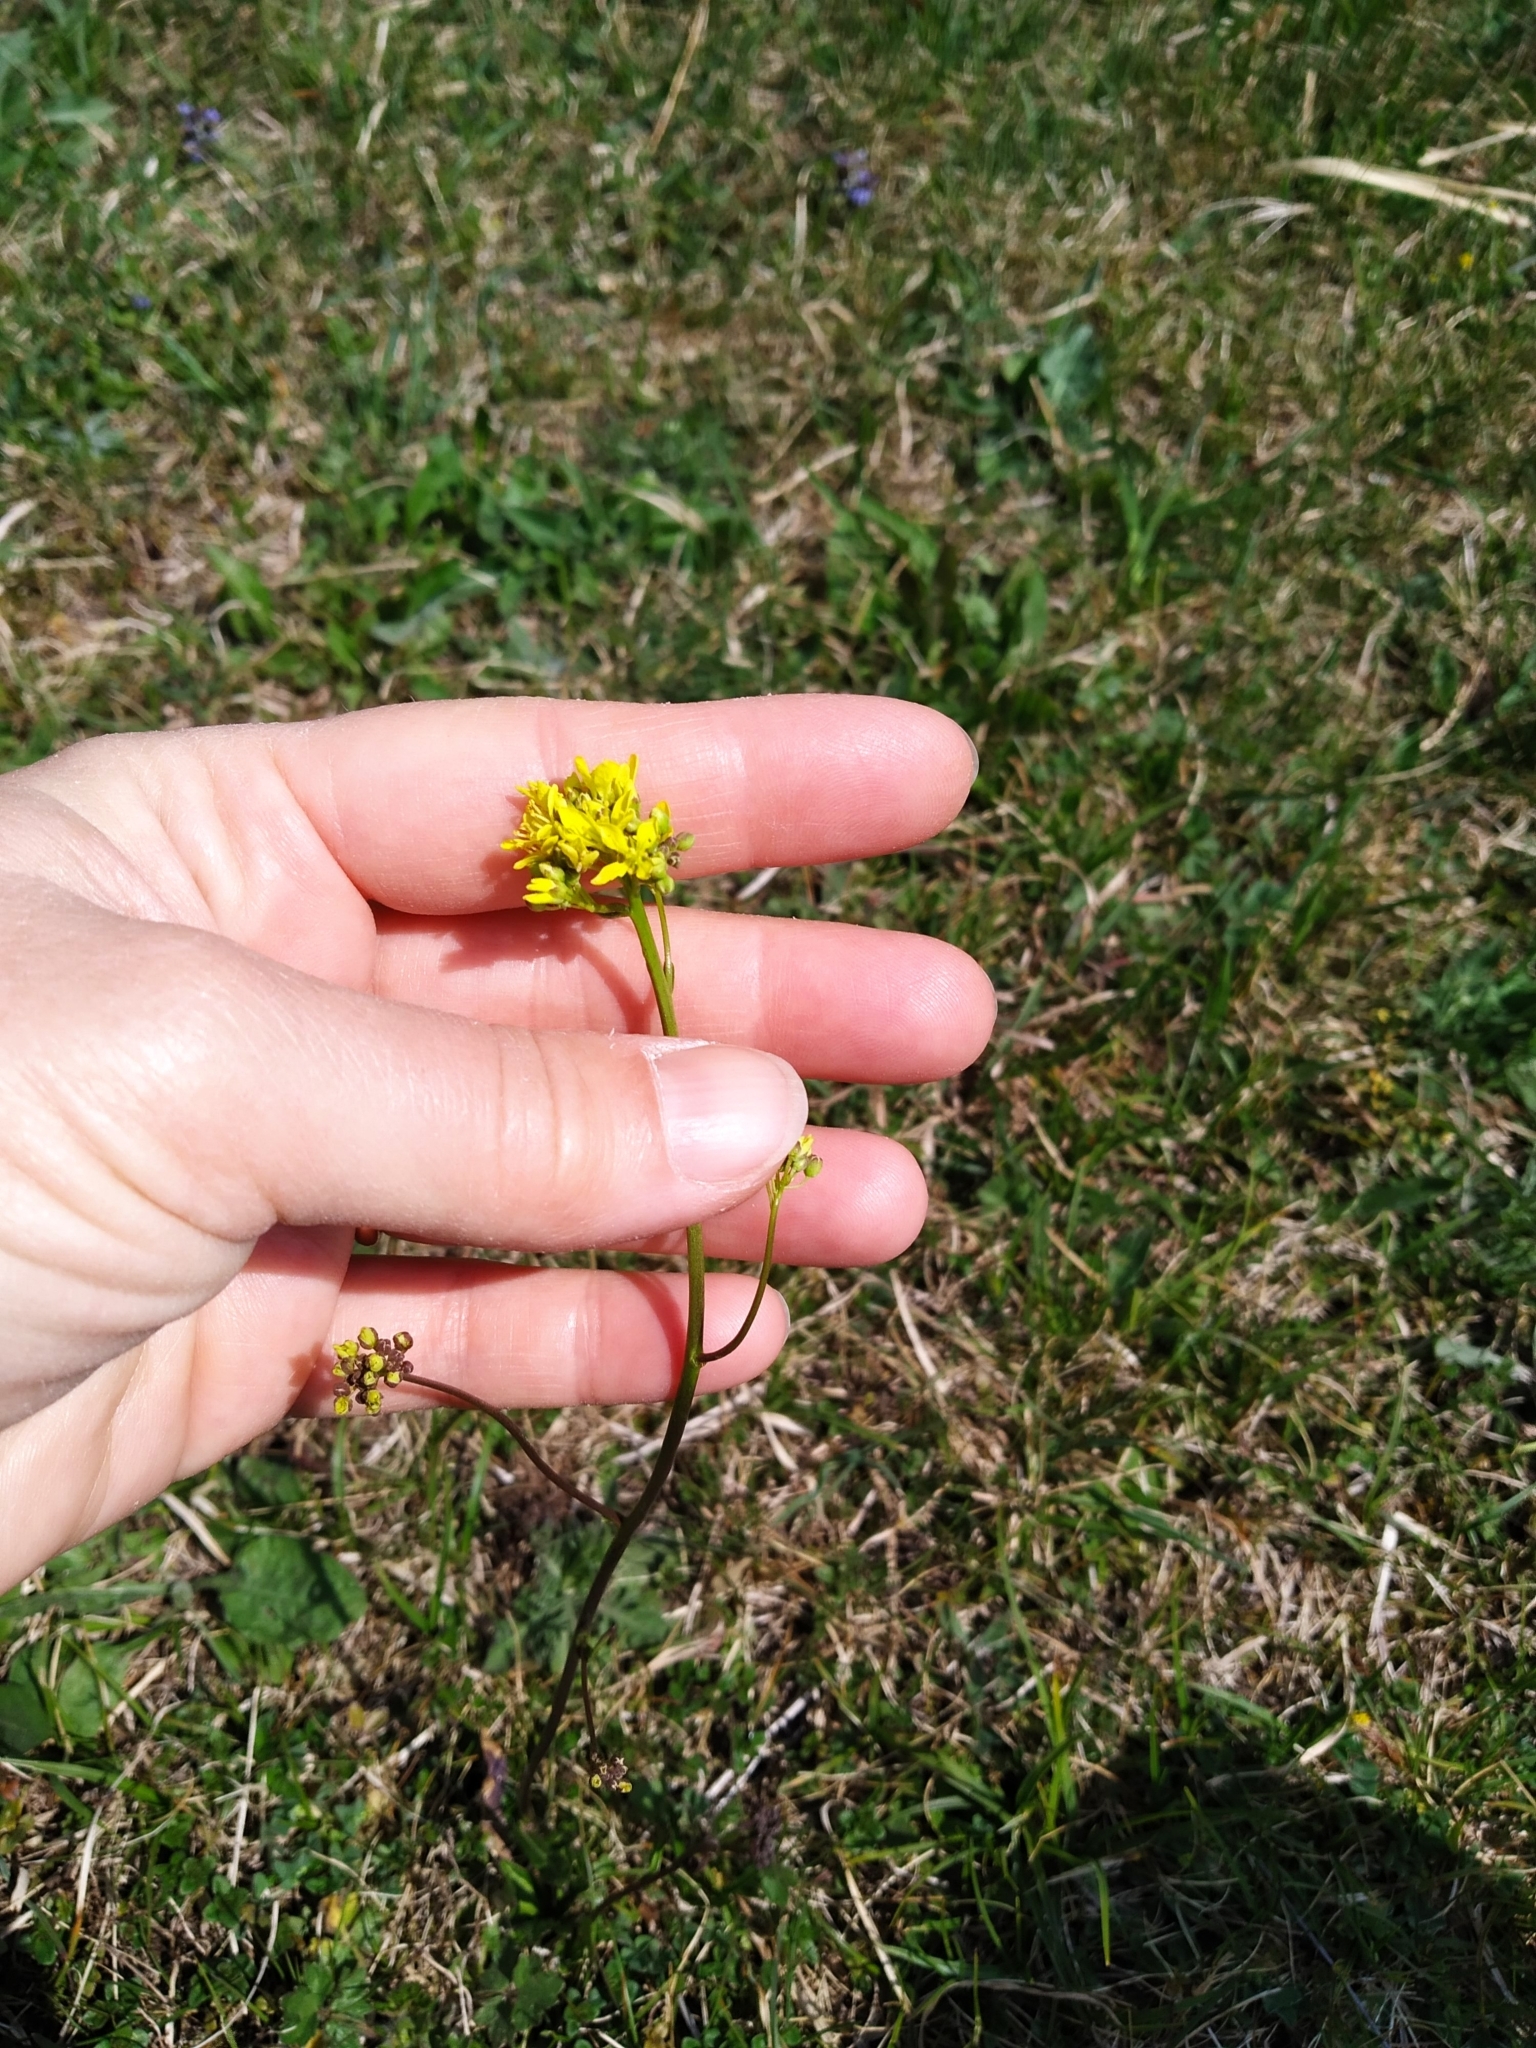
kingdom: Plantae
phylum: Tracheophyta
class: Magnoliopsida
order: Brassicales
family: Brassicaceae
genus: Biscutella
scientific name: Biscutella laevigata
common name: Buckler mustard
